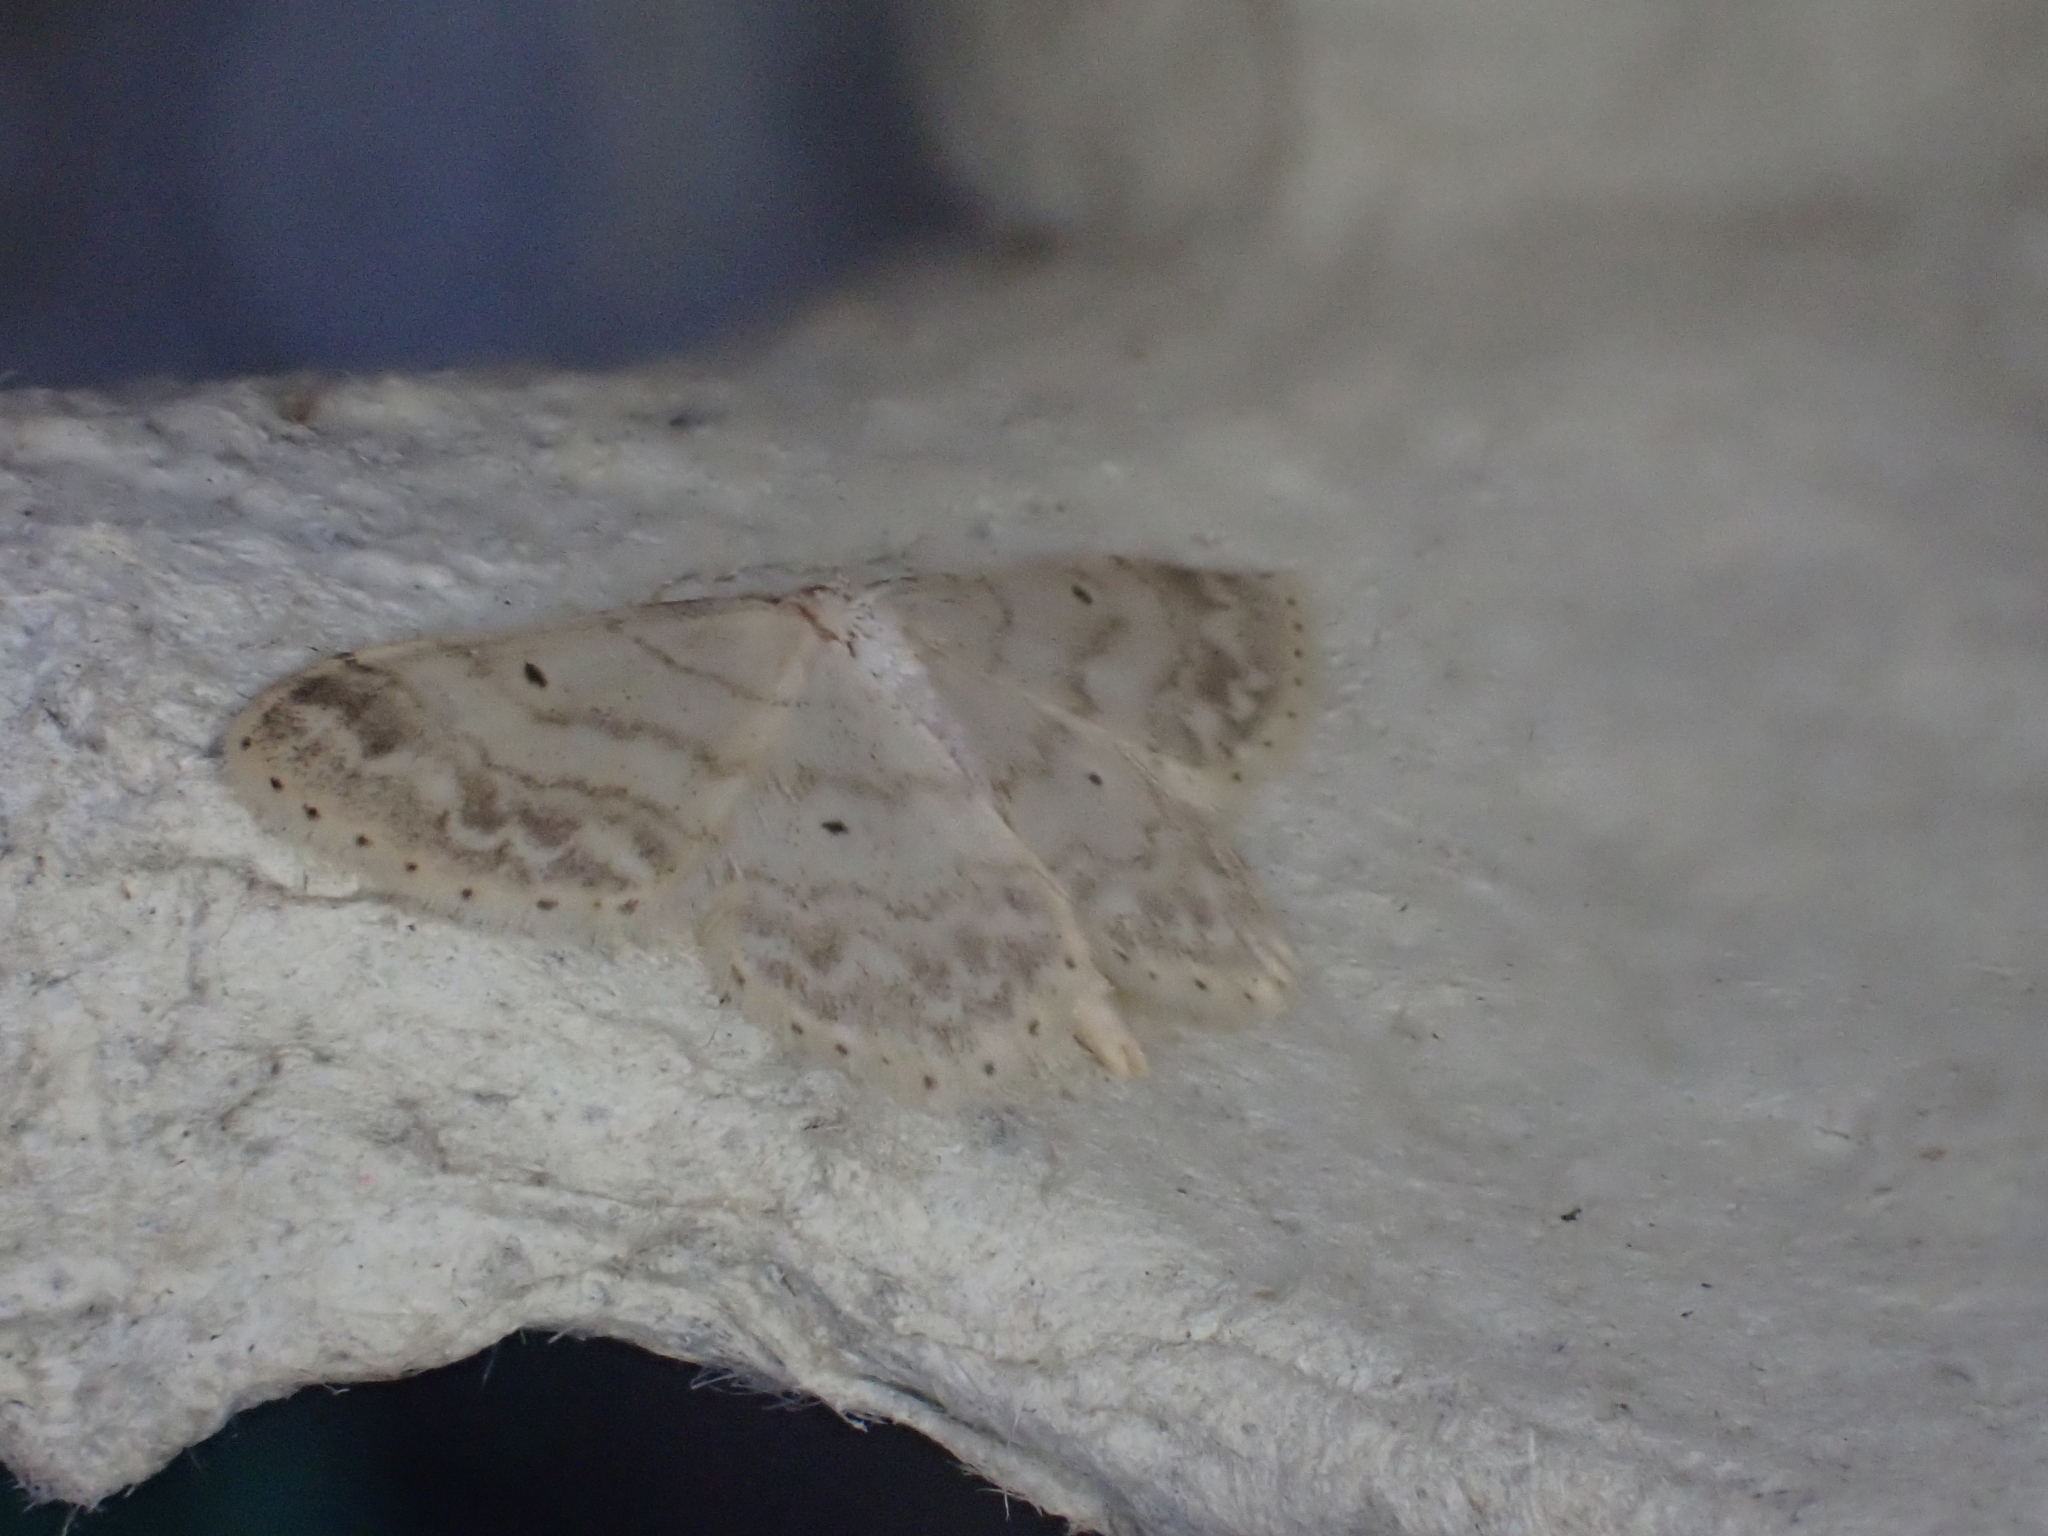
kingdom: Animalia
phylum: Arthropoda
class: Insecta
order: Lepidoptera
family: Geometridae
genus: Idaea
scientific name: Idaea biselata
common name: Small fan-footed wave
